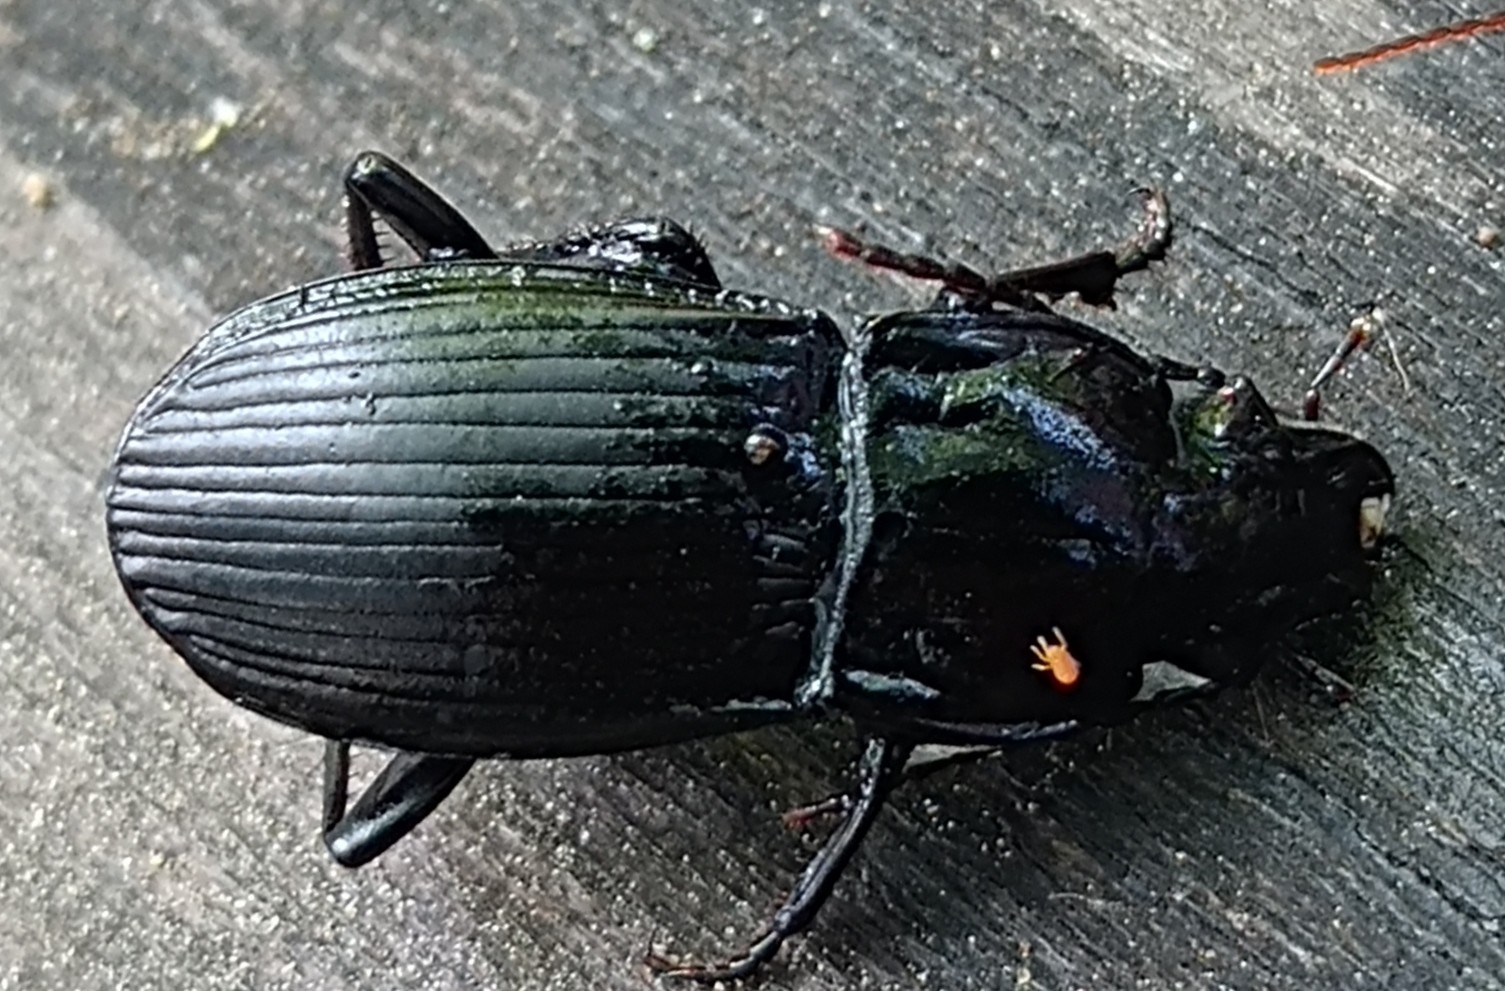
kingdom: Animalia
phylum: Arthropoda
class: Insecta
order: Coleoptera
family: Carabidae
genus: Abax
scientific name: Abax parallelepipedus
